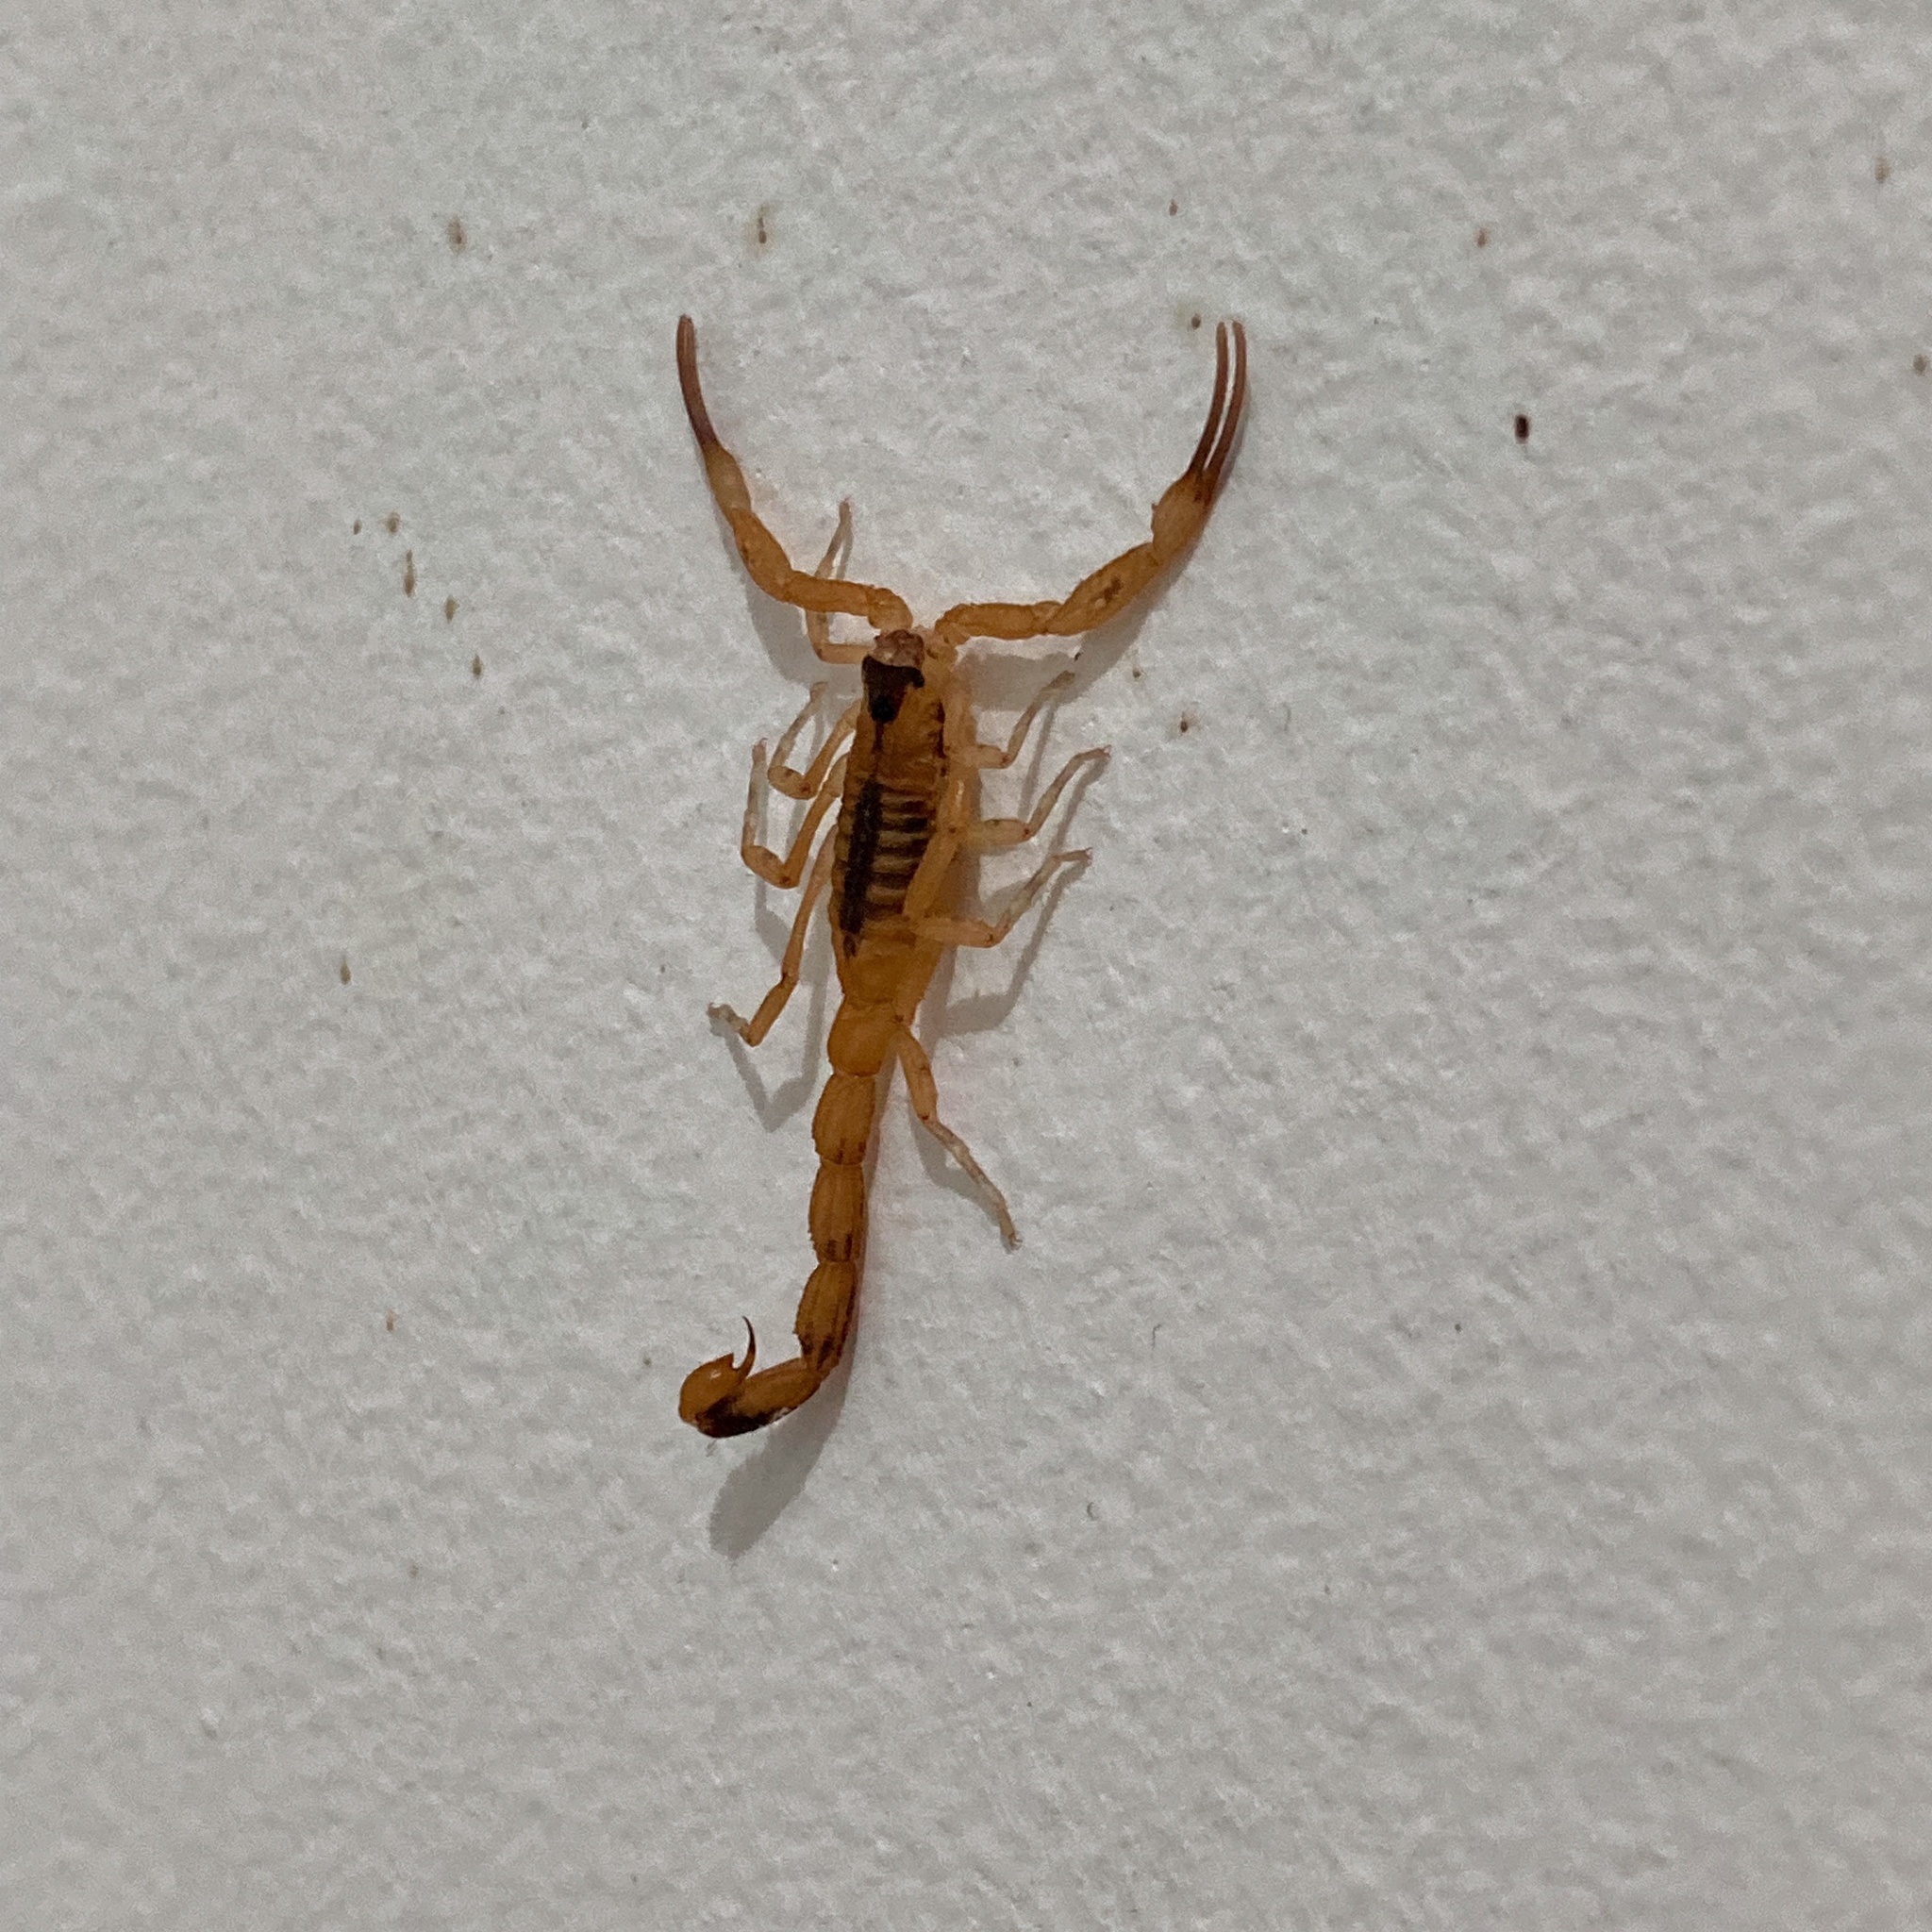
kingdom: Animalia
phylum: Arthropoda
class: Arachnida
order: Scorpiones
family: Buthidae
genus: Tityus
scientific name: Tityus stigmurus
